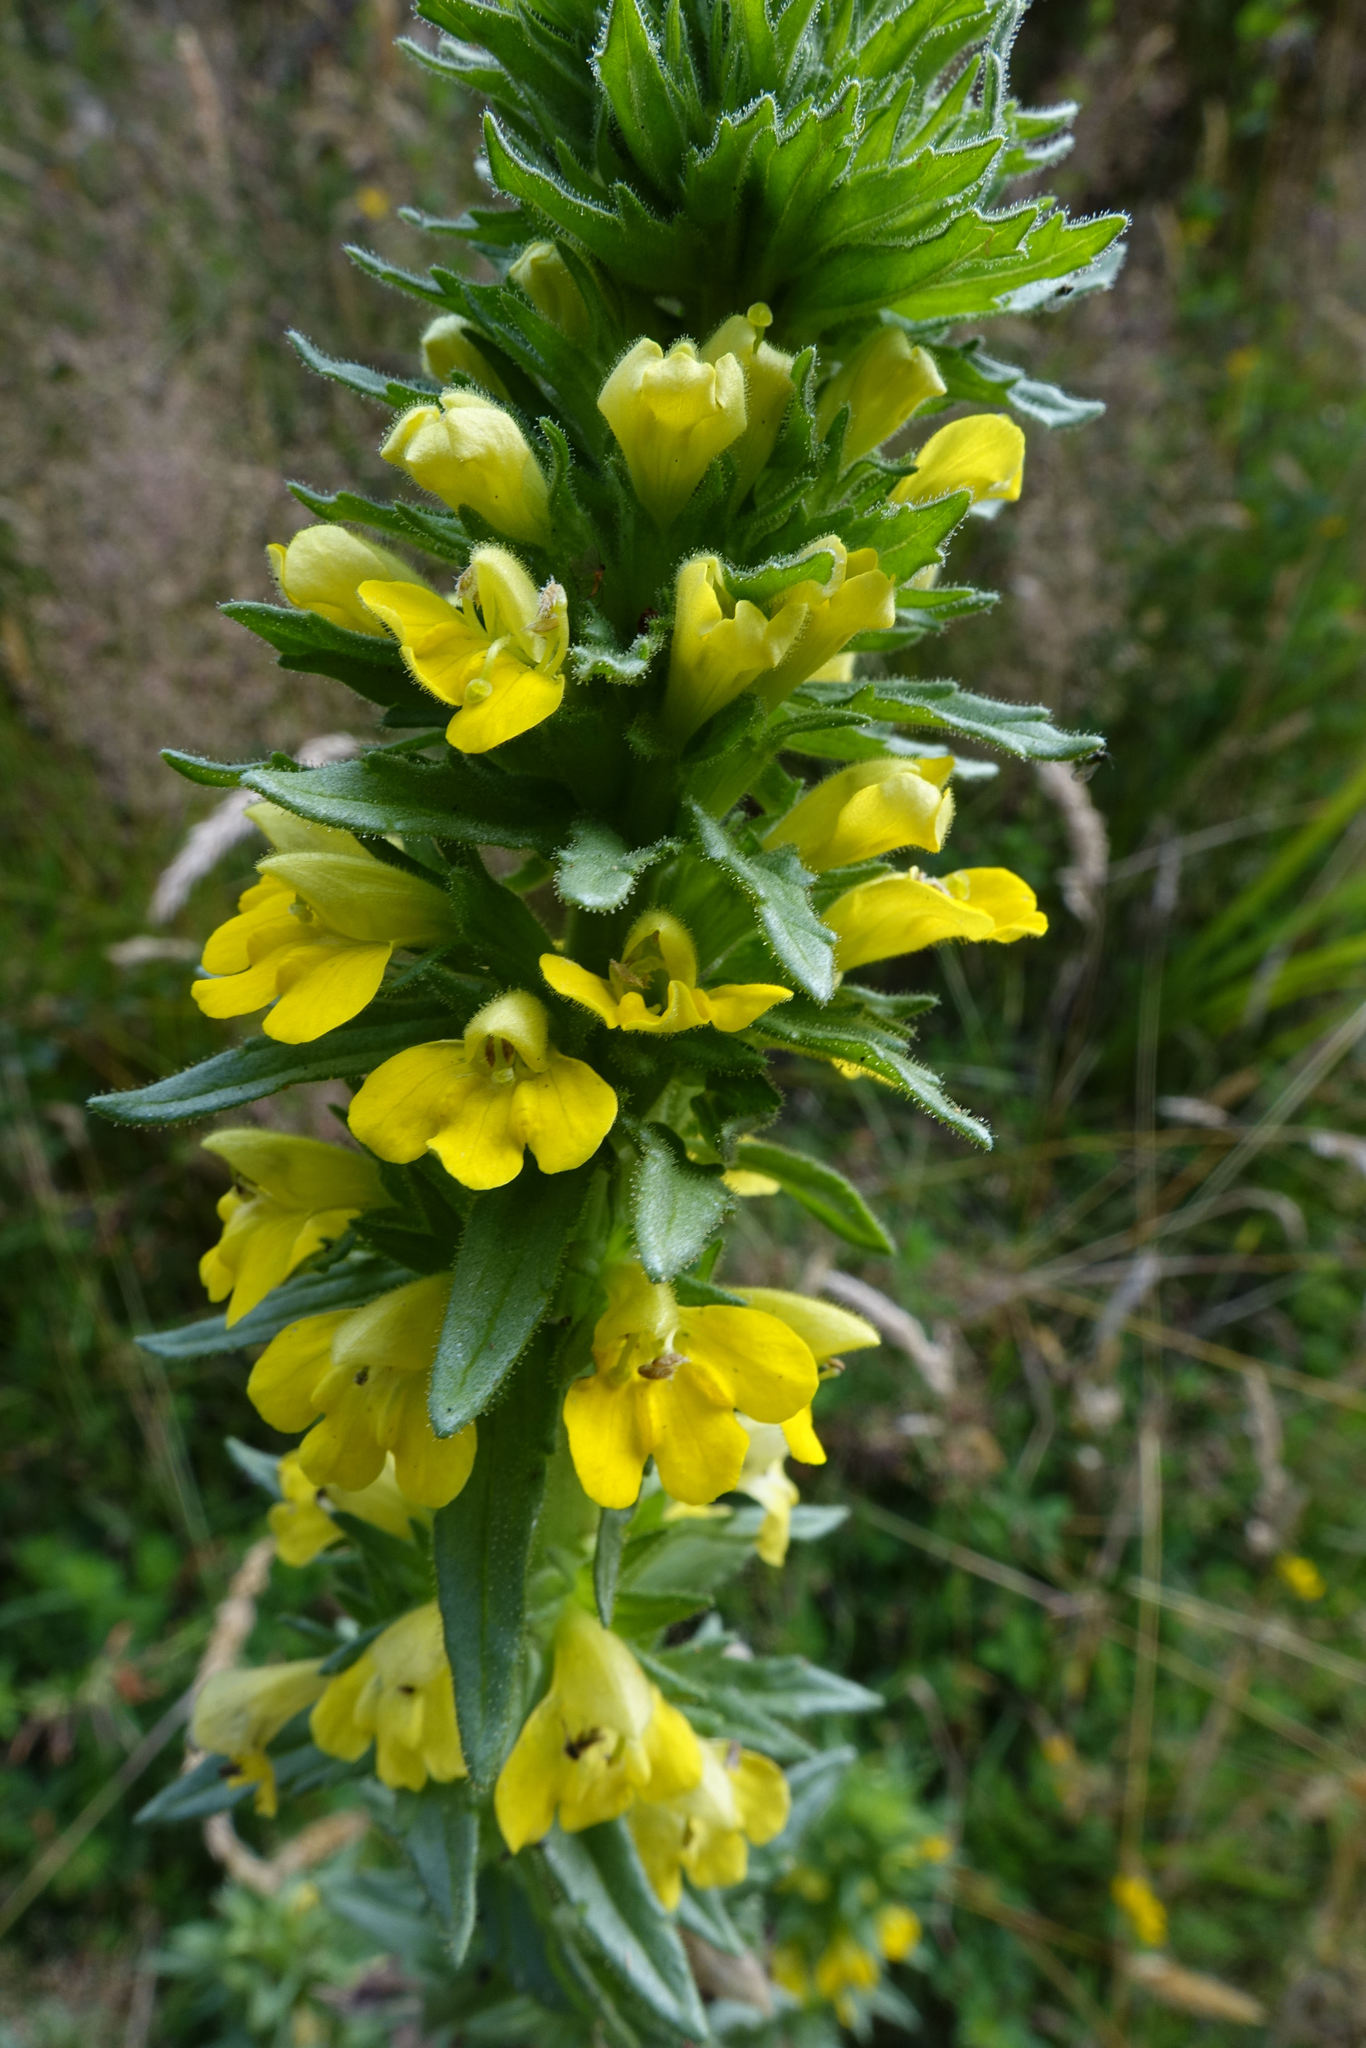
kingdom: Plantae
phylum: Tracheophyta
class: Magnoliopsida
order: Lamiales
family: Orobanchaceae
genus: Bellardia
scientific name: Bellardia viscosa
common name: Sticky parentucellia
